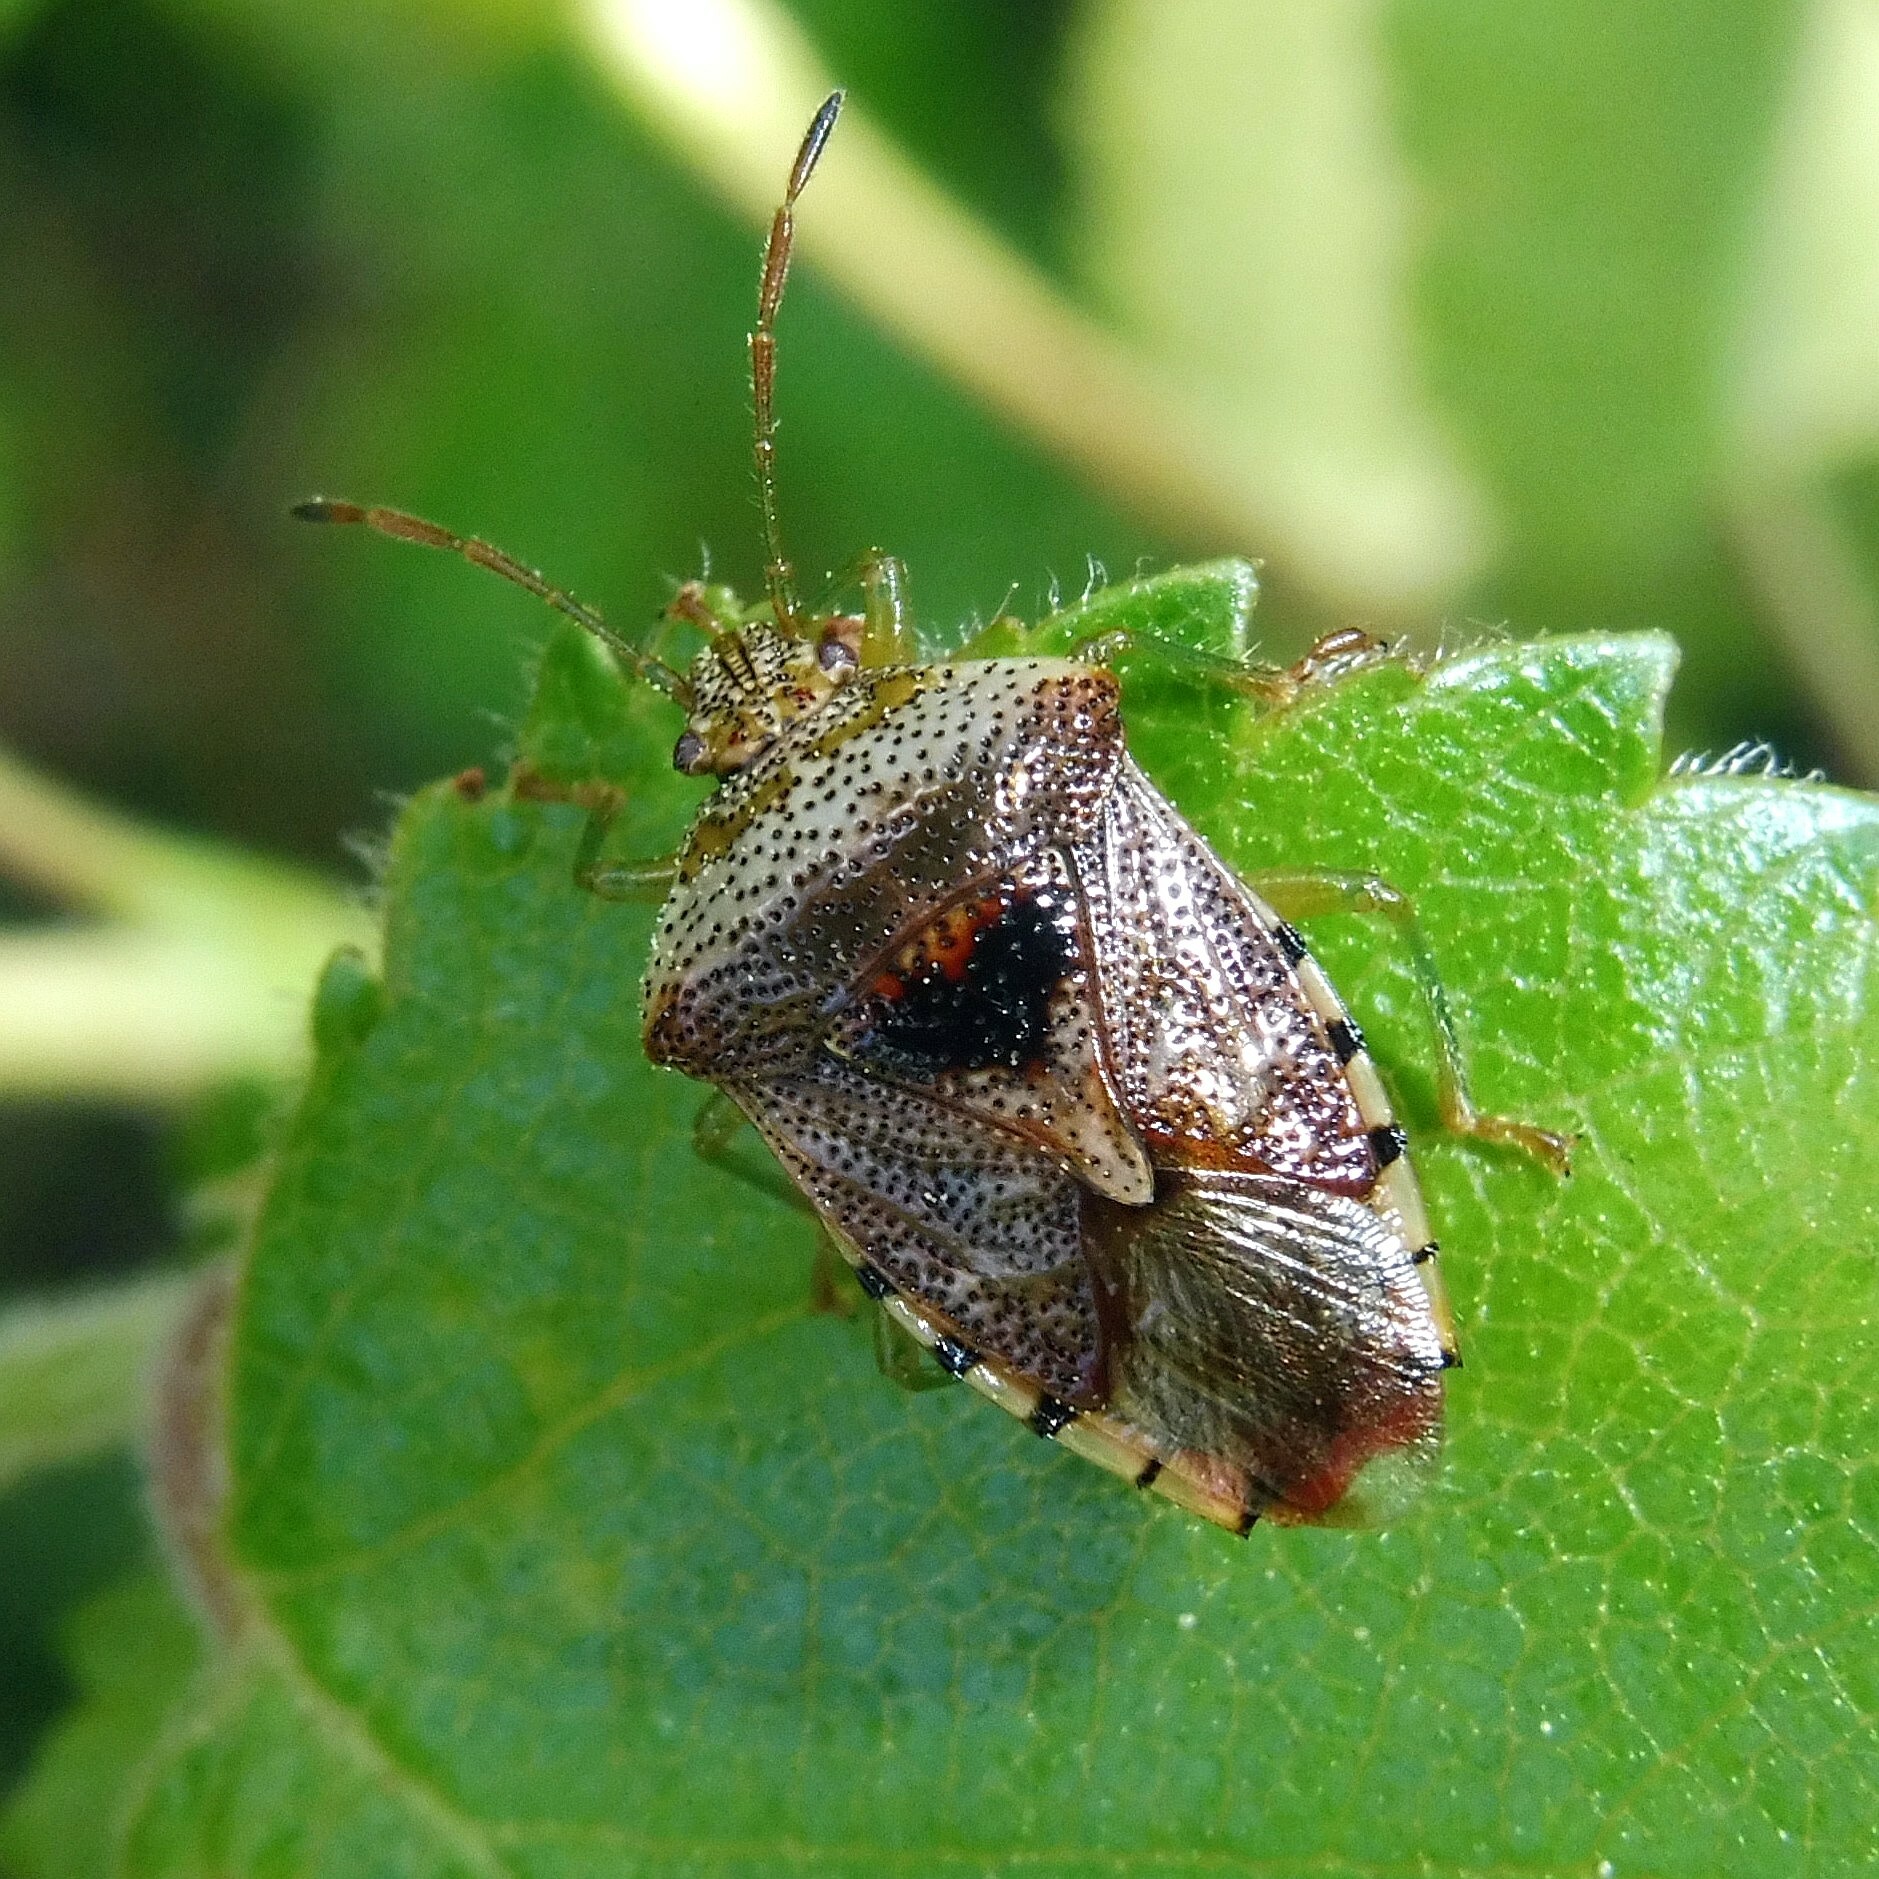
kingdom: Animalia
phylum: Arthropoda
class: Insecta
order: Hemiptera
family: Acanthosomatidae
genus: Elasmucha
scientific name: Elasmucha grisea
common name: Parent bug
